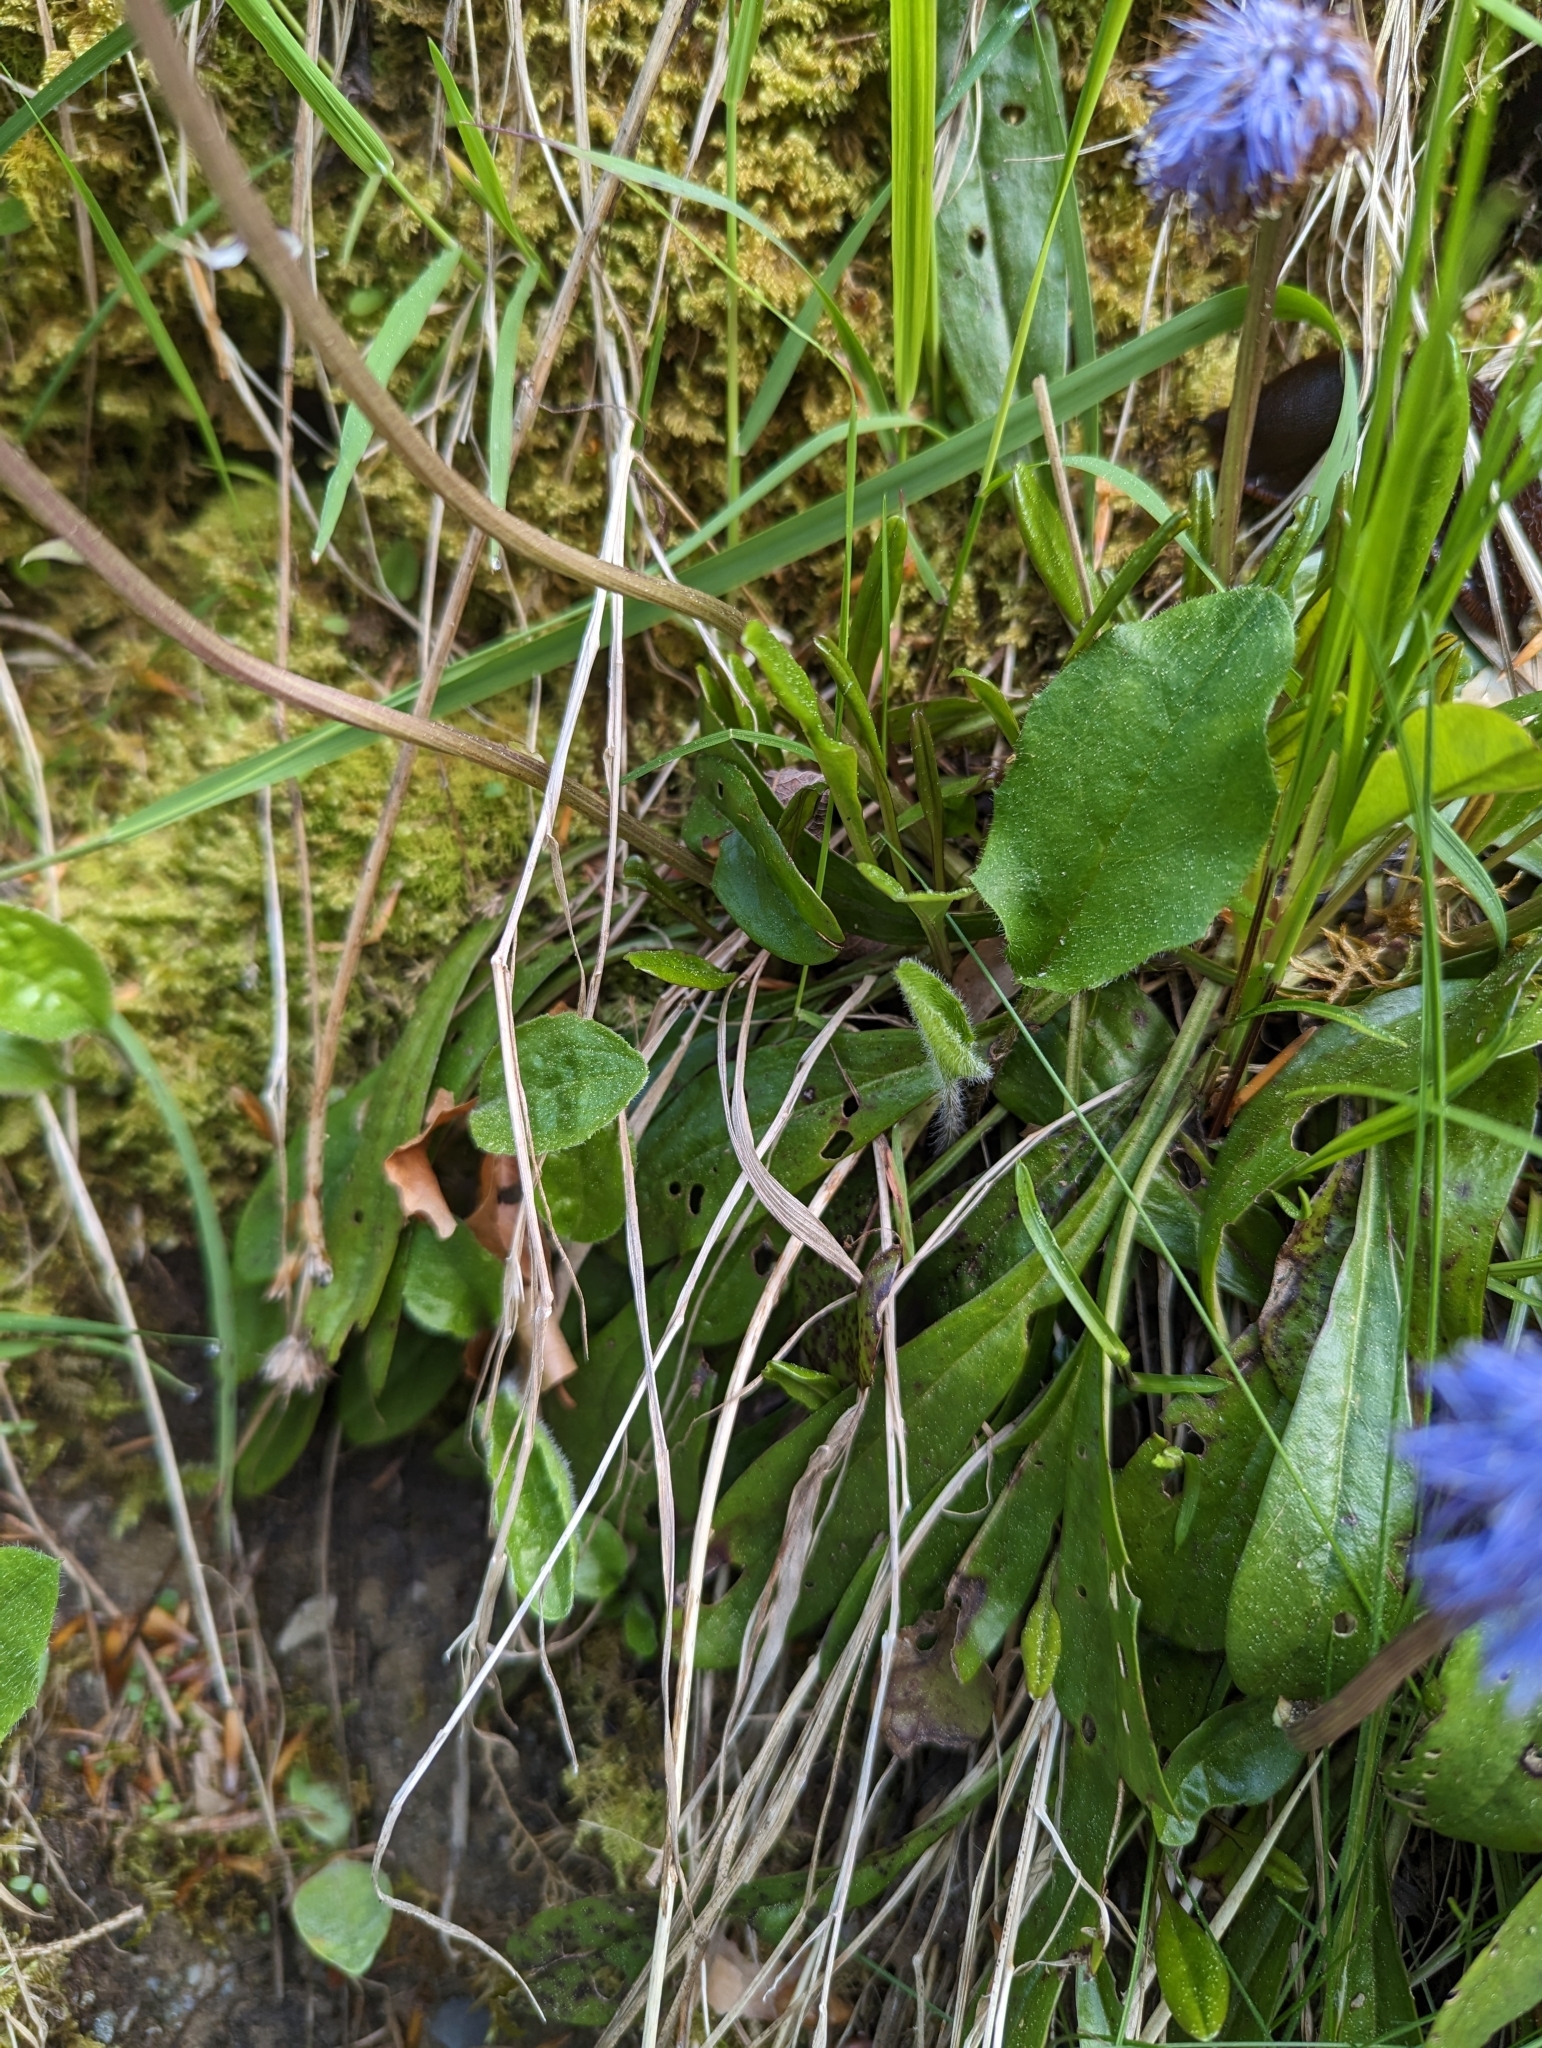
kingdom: Plantae
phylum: Tracheophyta
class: Magnoliopsida
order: Lamiales
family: Plantaginaceae
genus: Globularia
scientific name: Globularia nudicaulis
